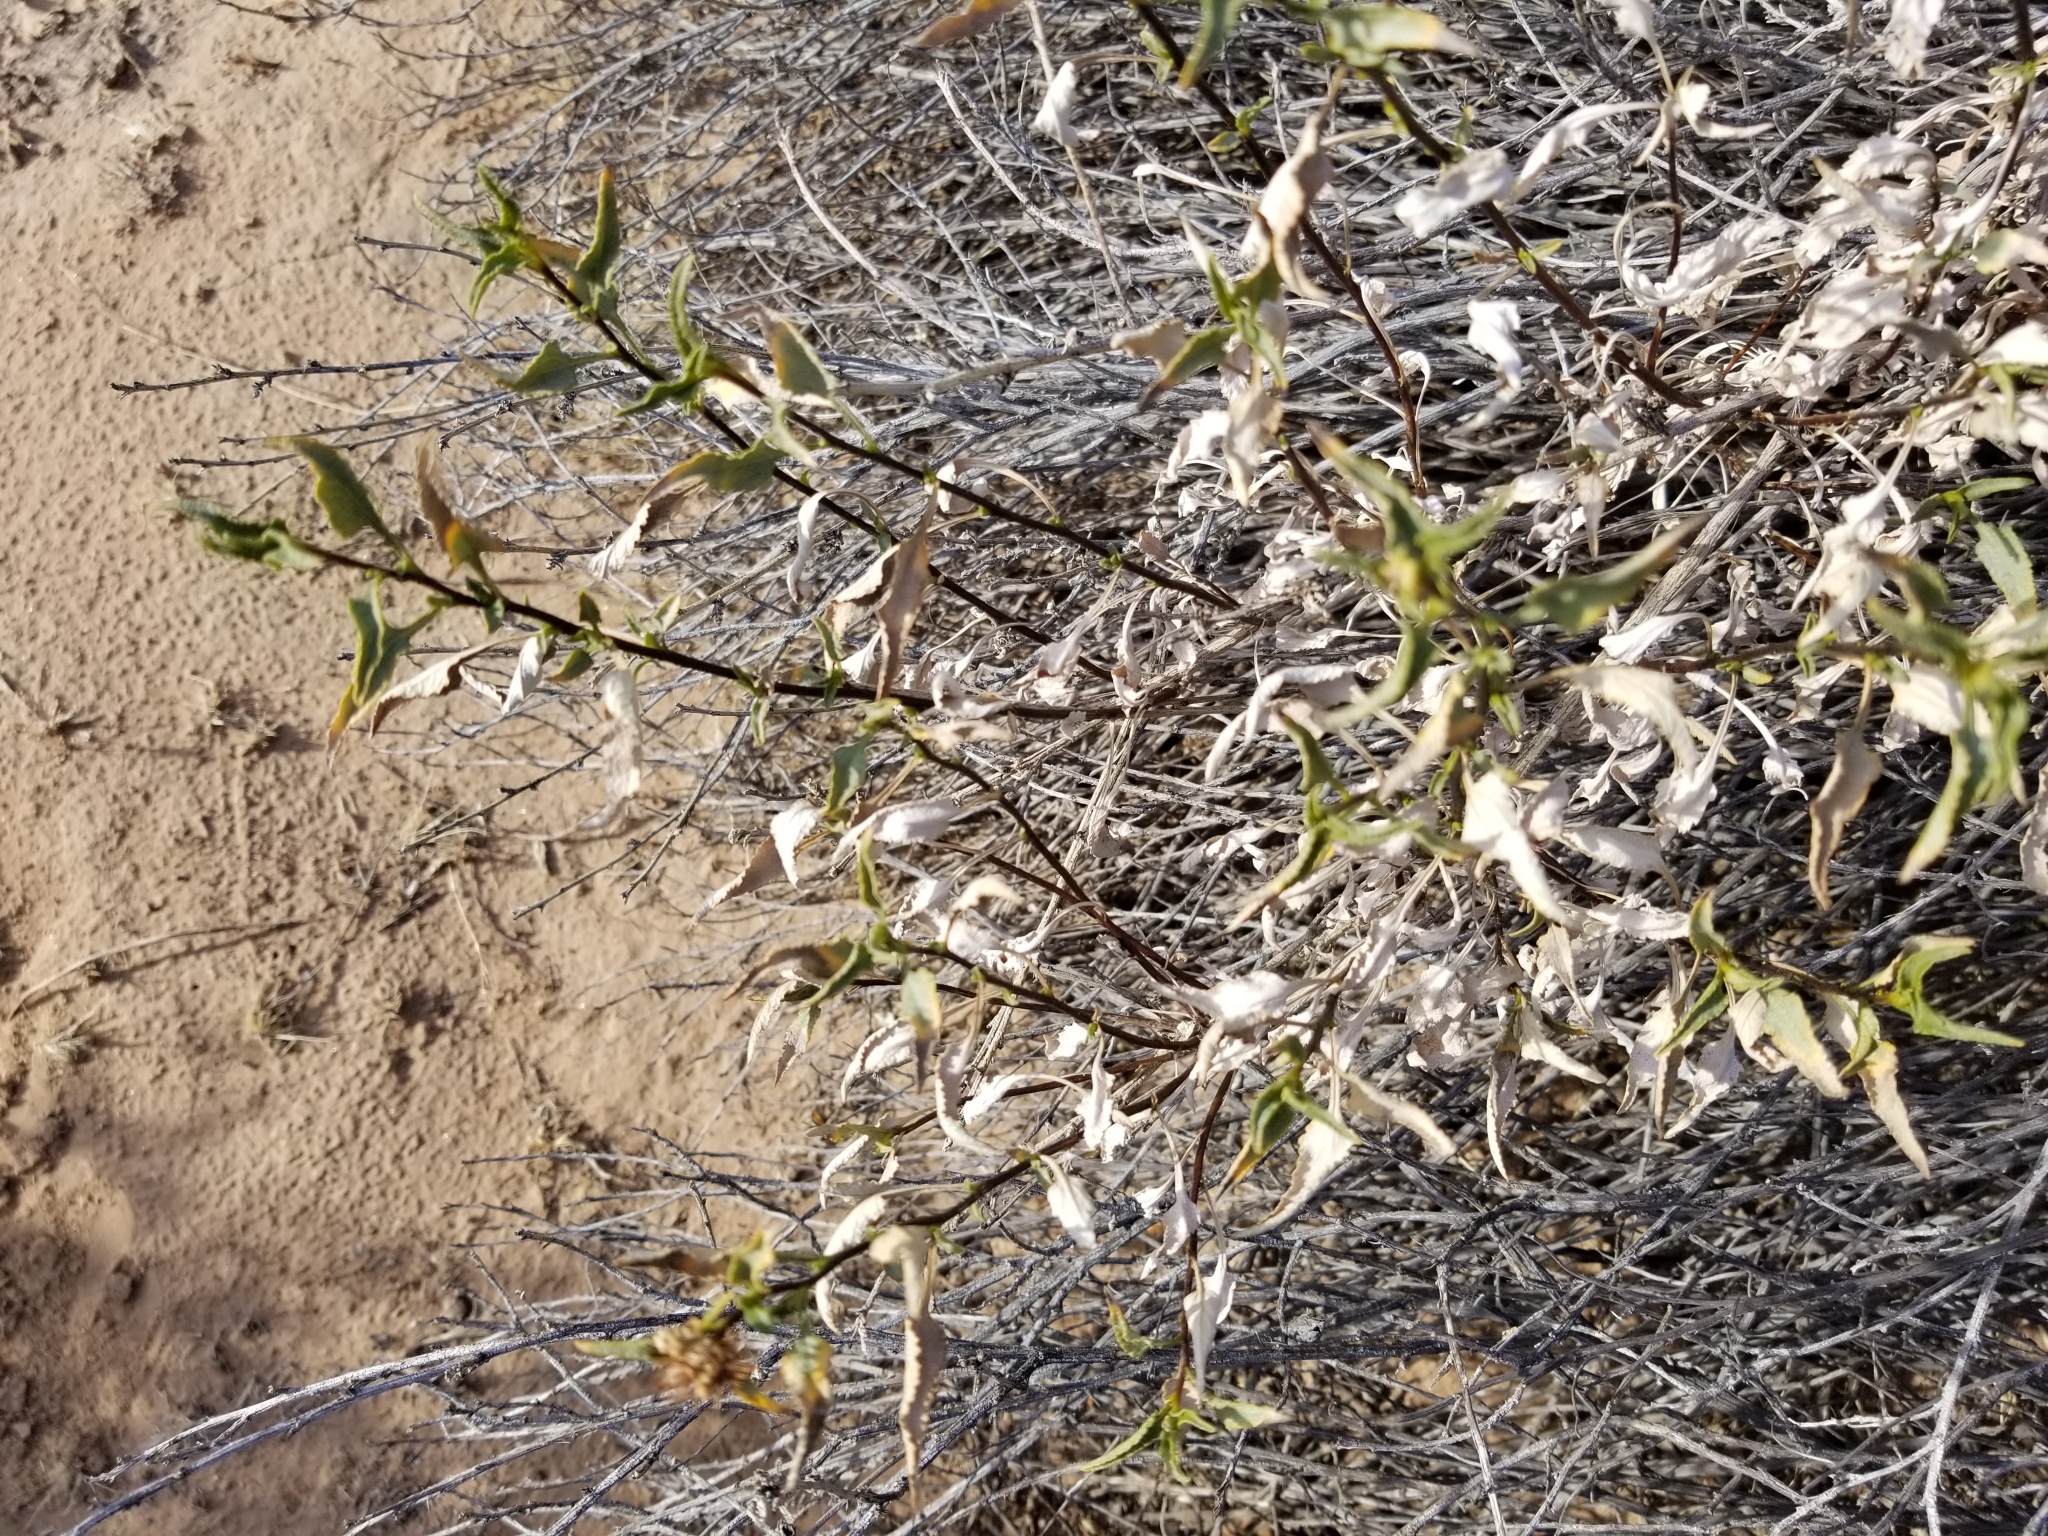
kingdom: Plantae
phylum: Tracheophyta
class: Magnoliopsida
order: Asterales
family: Asteraceae
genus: Ambrosia
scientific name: Ambrosia deltoidea
